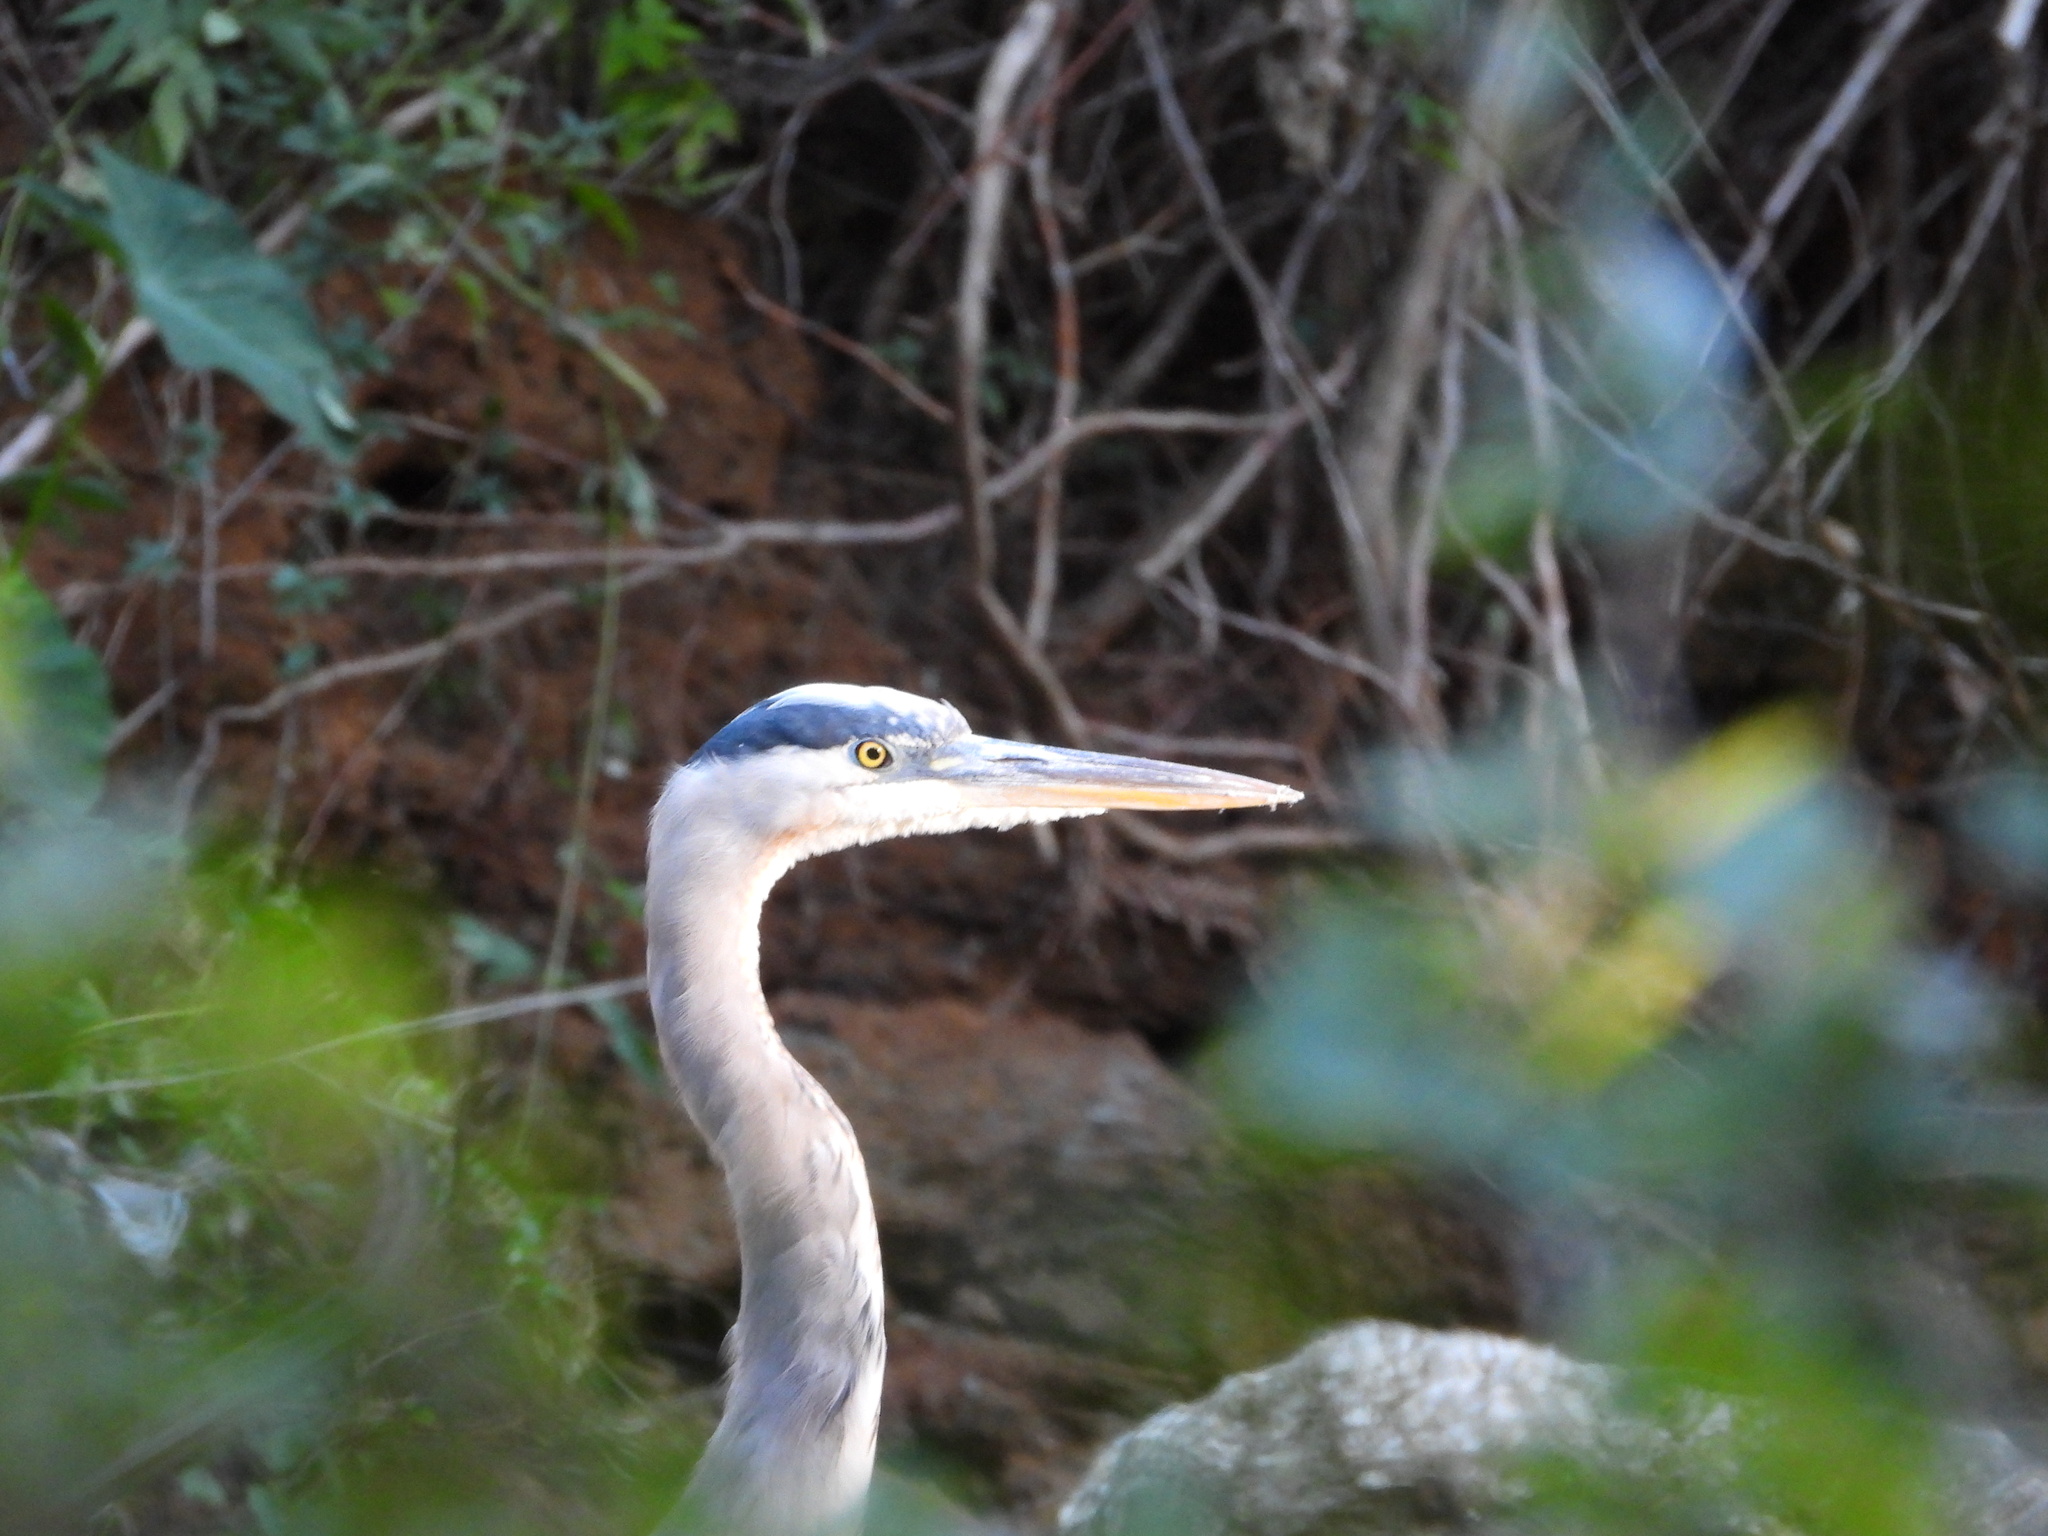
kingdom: Animalia
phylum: Chordata
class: Aves
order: Pelecaniformes
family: Ardeidae
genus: Ardea
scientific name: Ardea herodias
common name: Great blue heron
